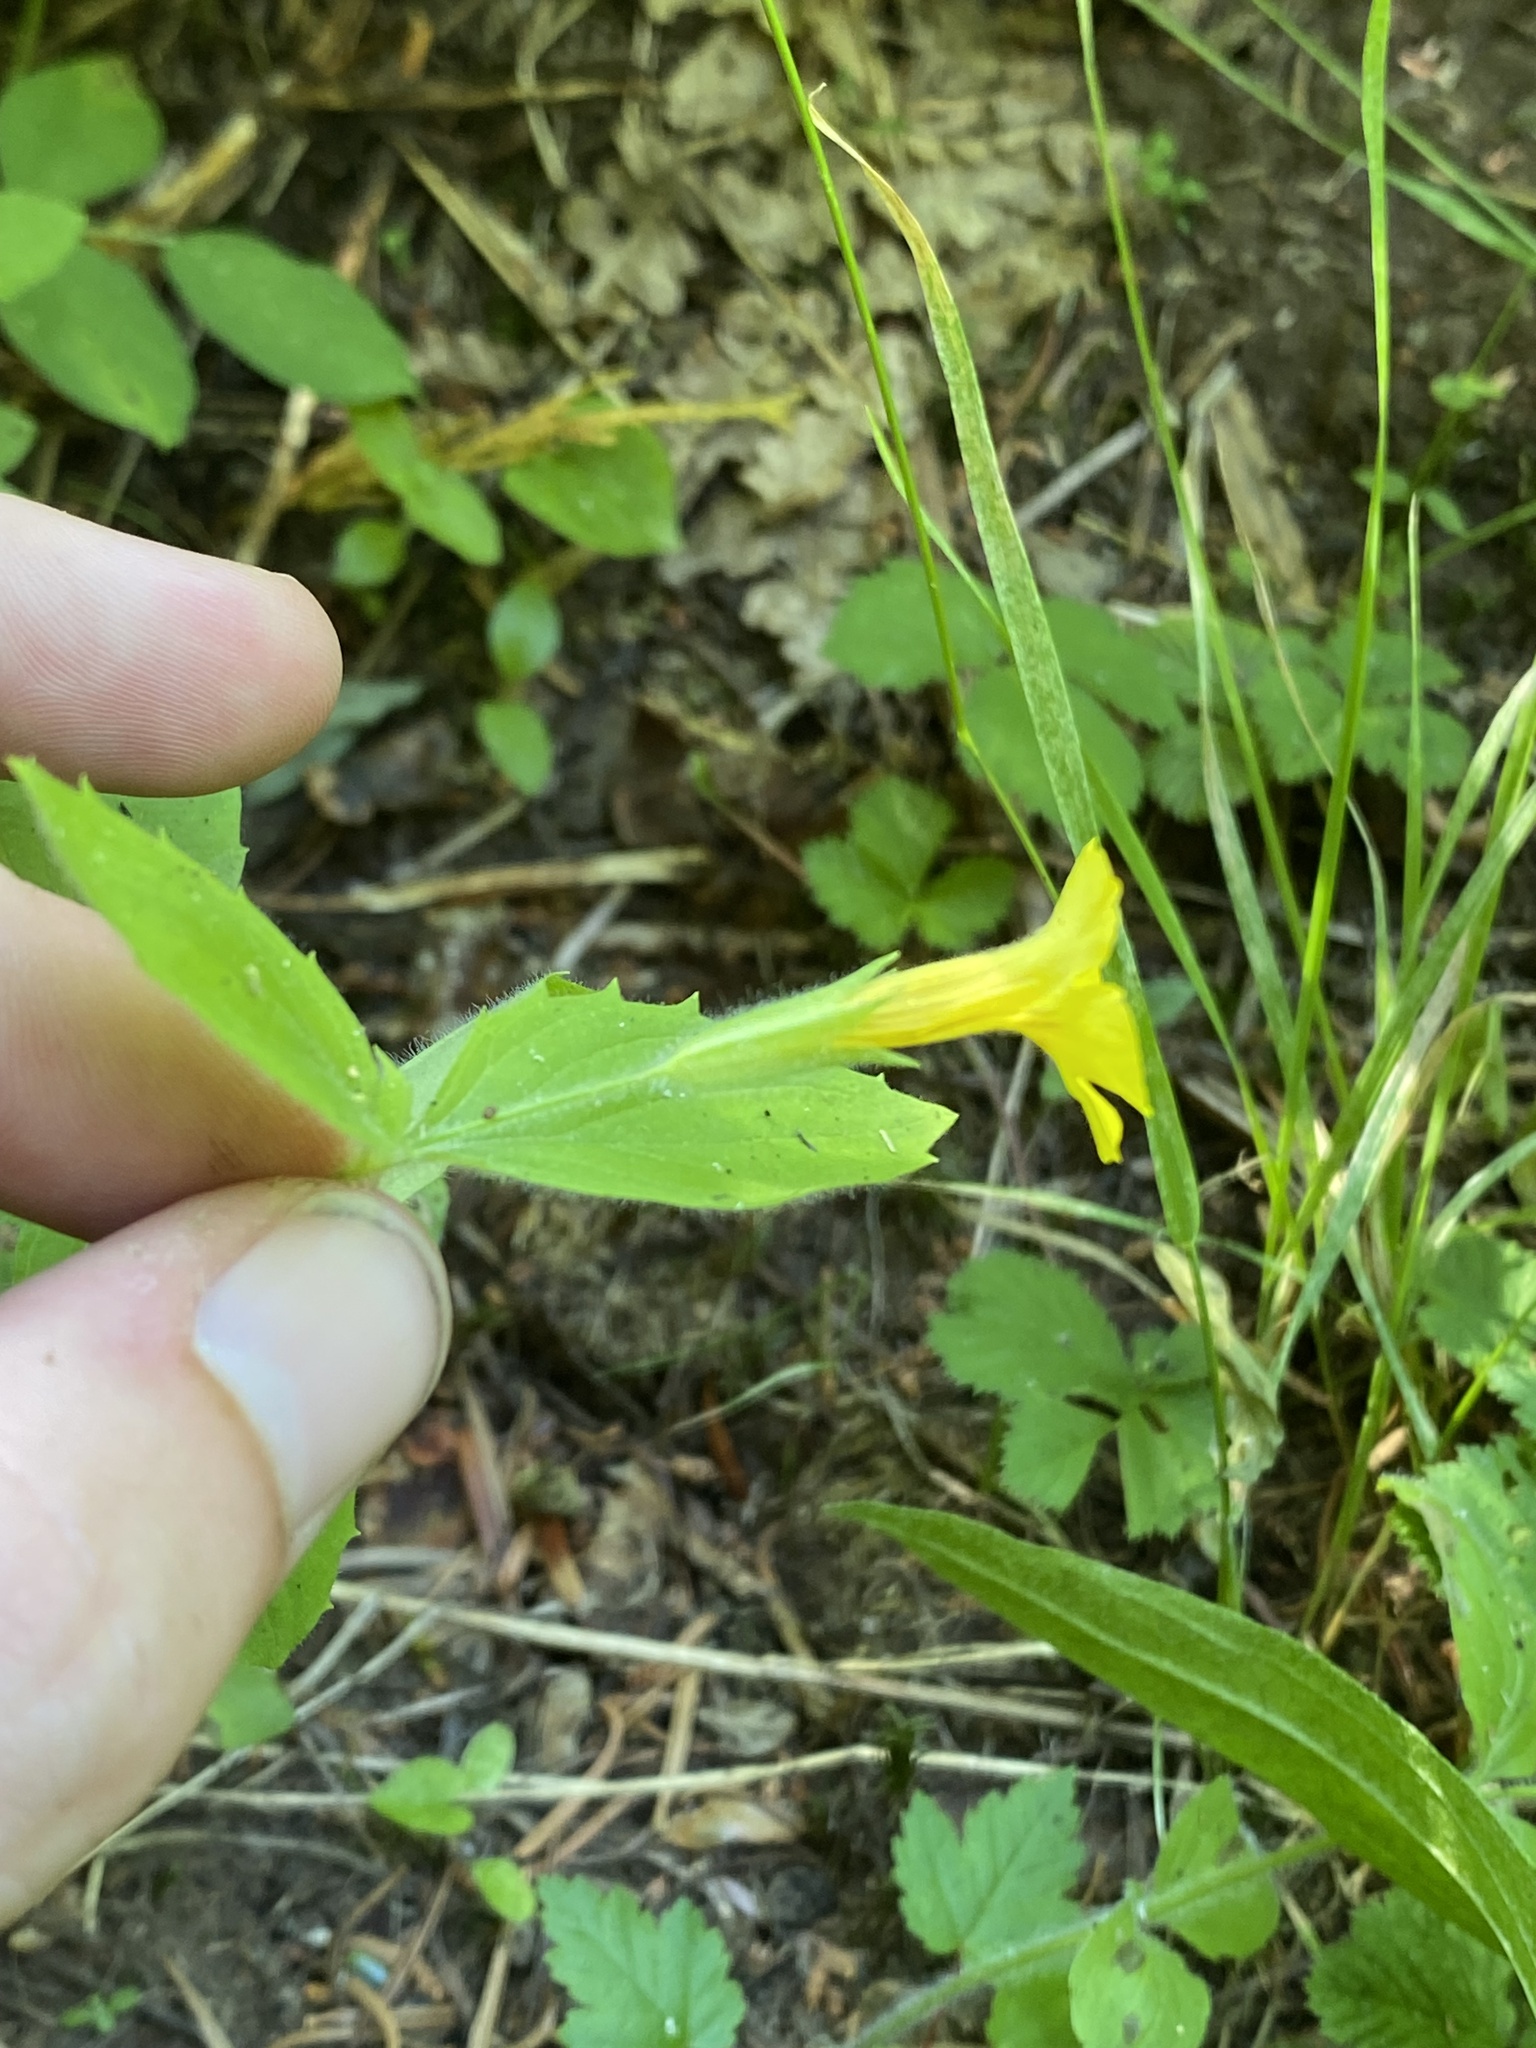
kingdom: Plantae
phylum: Tracheophyta
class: Magnoliopsida
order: Lamiales
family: Phrymaceae
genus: Erythranthe
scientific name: Erythranthe moschata
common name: Muskflower
